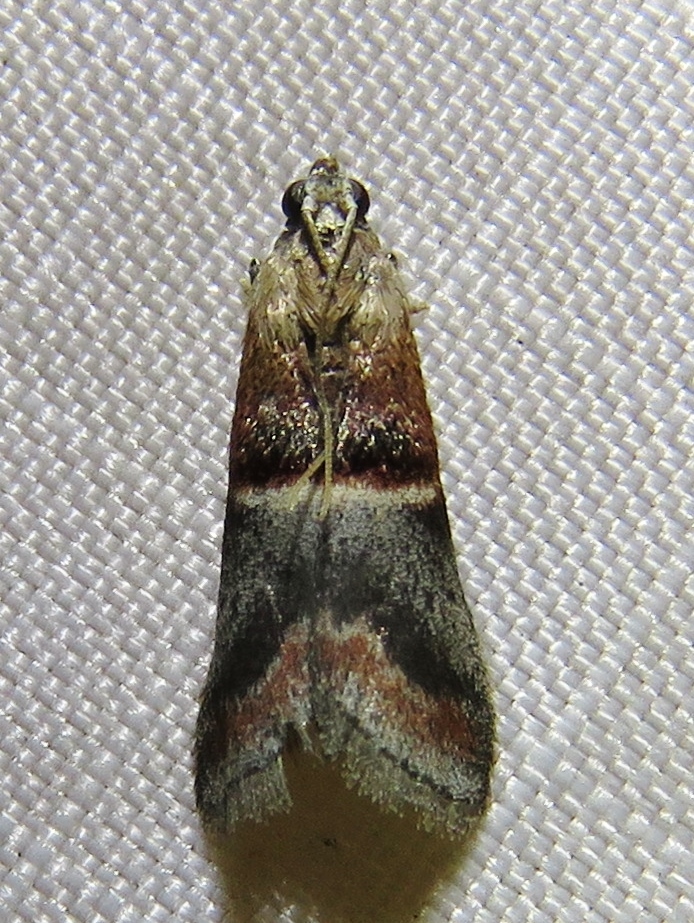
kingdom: Animalia
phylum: Arthropoda
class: Insecta
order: Lepidoptera
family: Pyralidae
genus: Acrobasis
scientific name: Acrobasis demotella
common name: Walnut shoot moth
